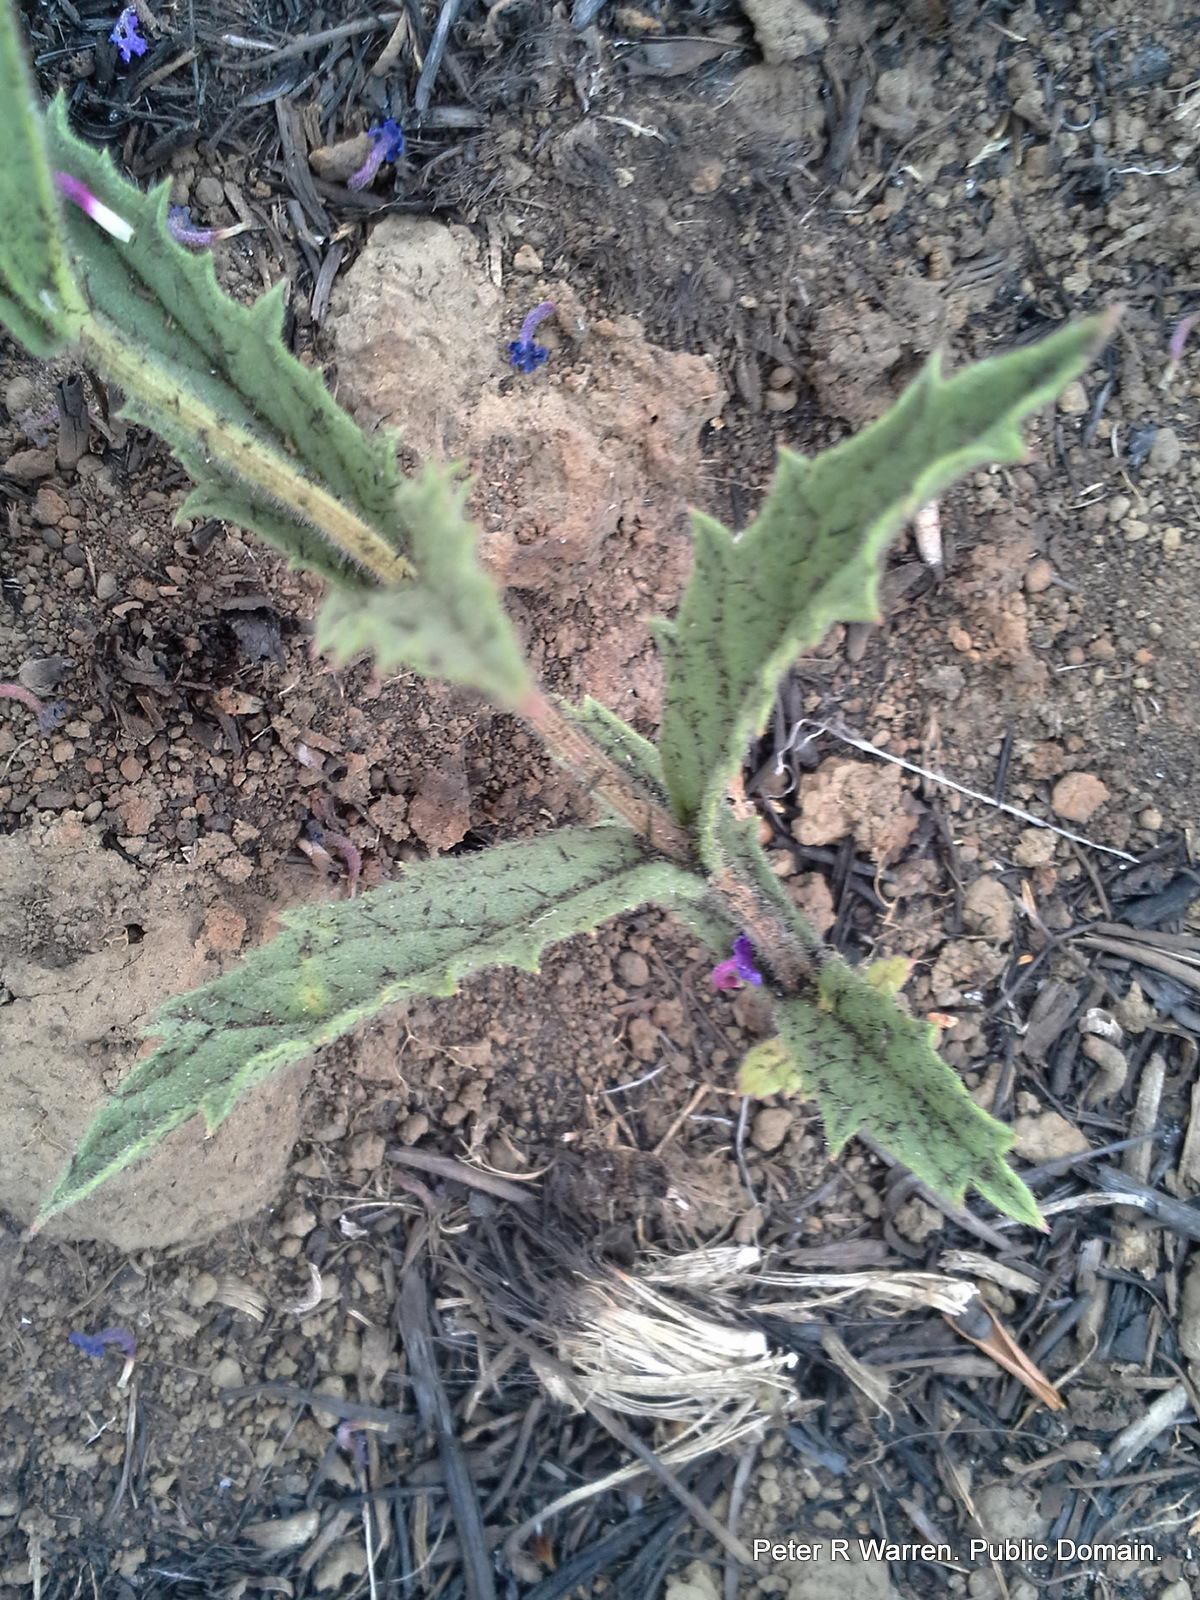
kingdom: Plantae
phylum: Tracheophyta
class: Magnoliopsida
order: Lamiales
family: Verbenaceae
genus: Verbena
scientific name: Verbena rigida
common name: Slender vervain
